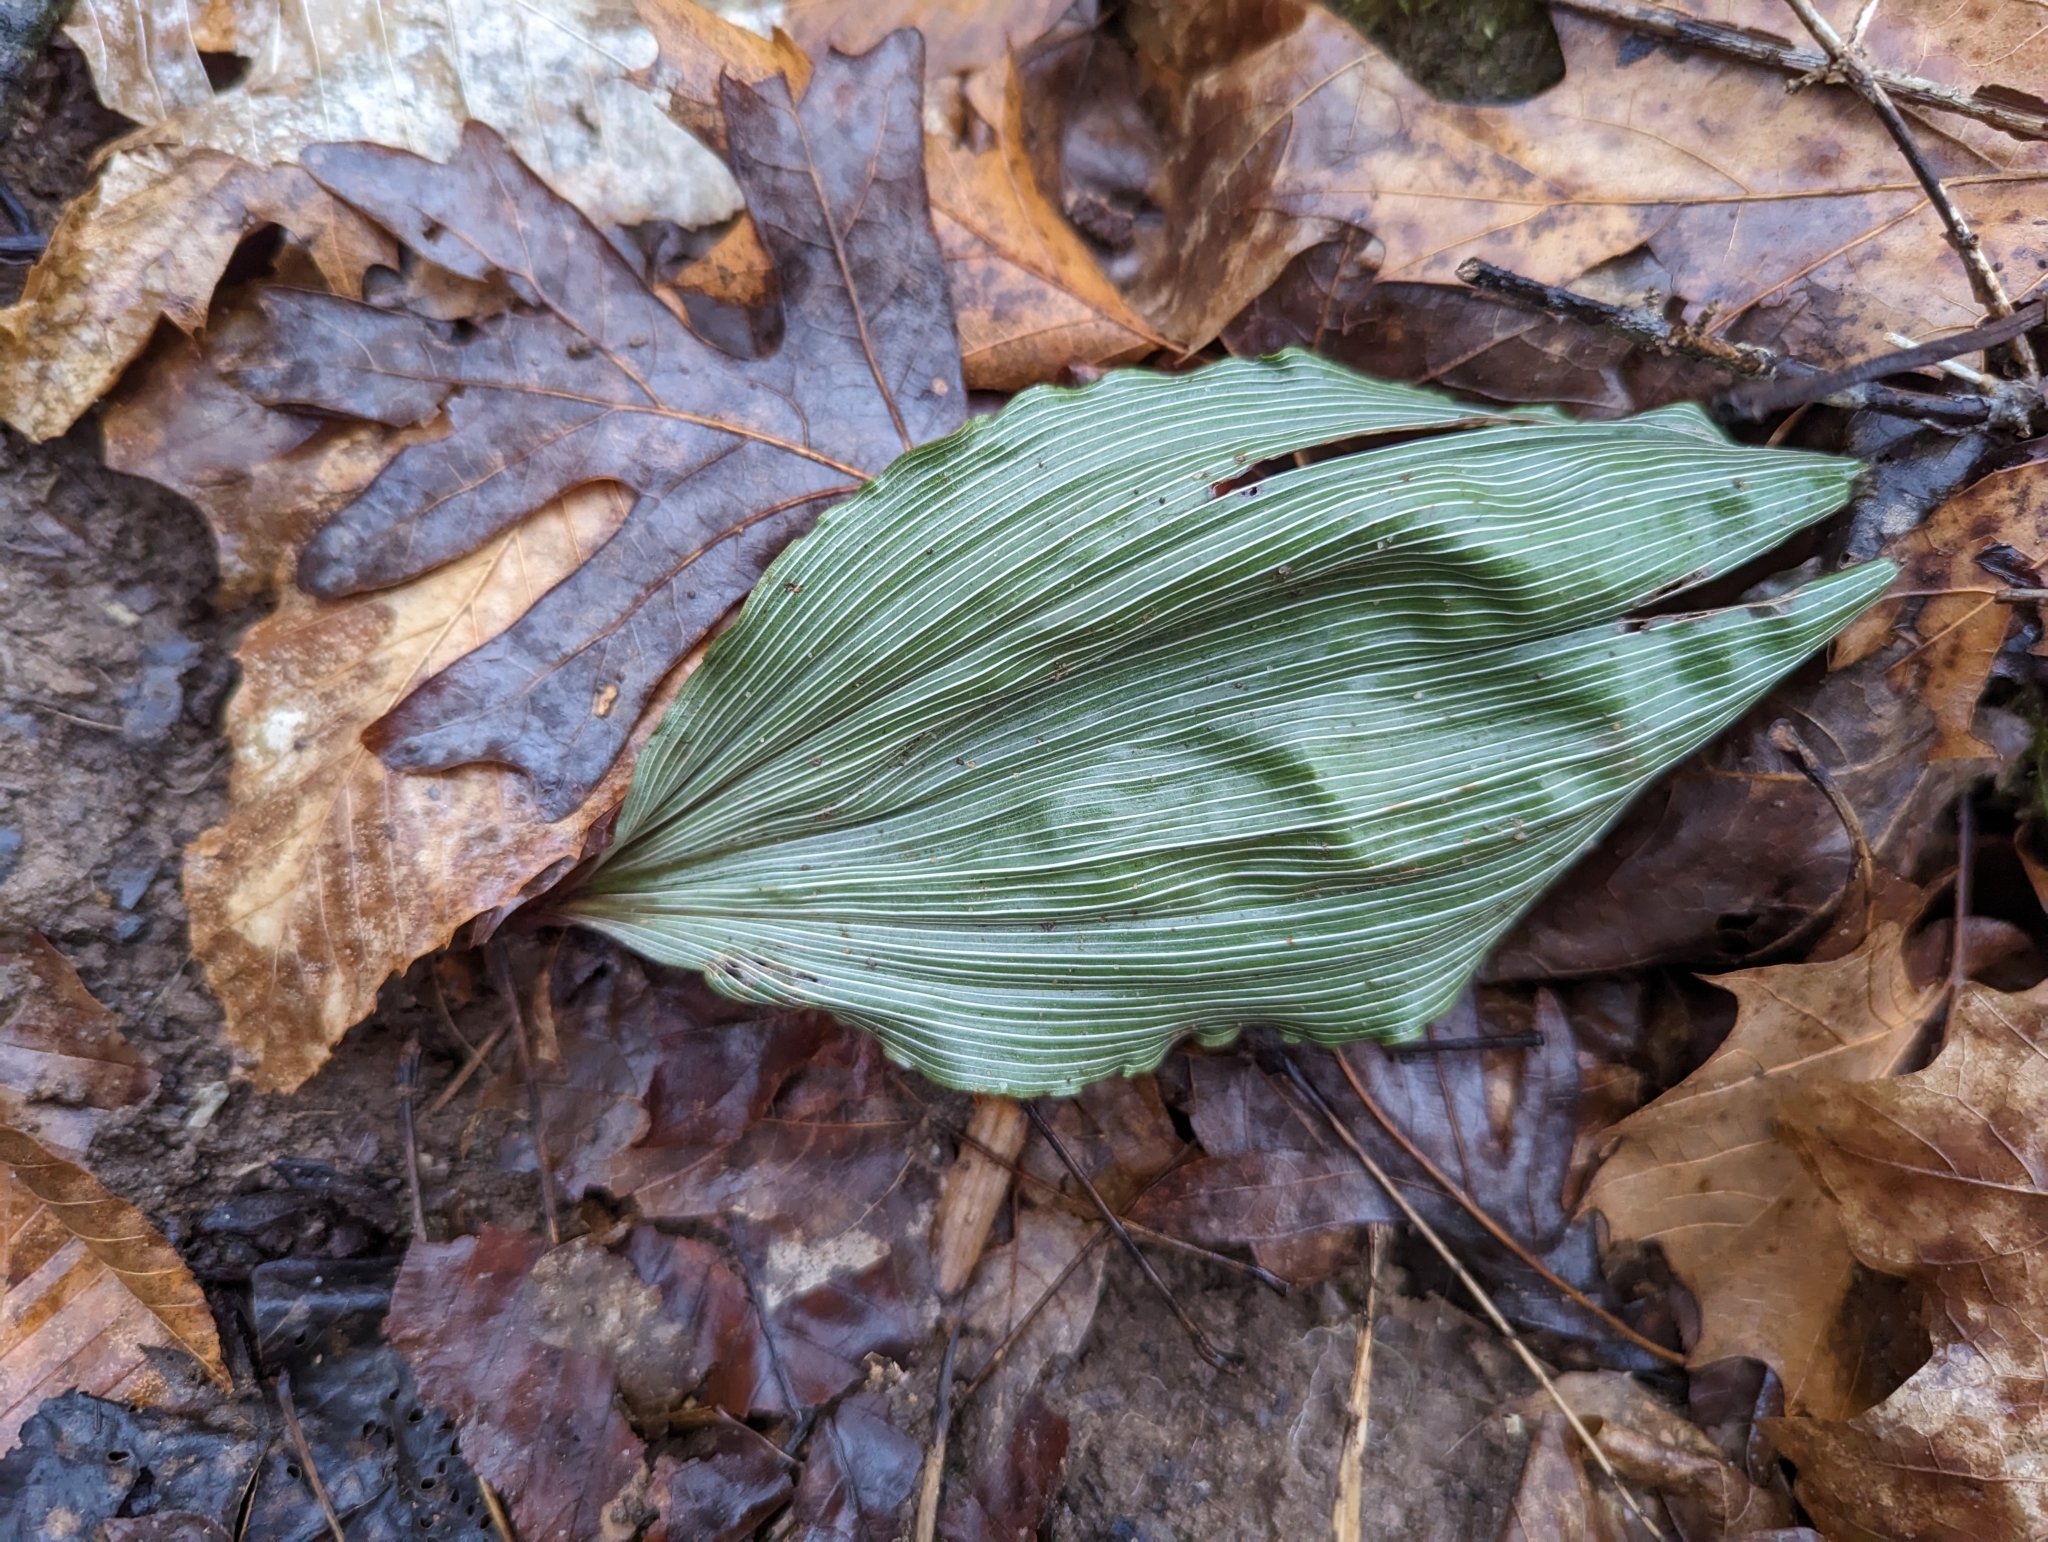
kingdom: Plantae
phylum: Tracheophyta
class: Liliopsida
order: Asparagales
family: Orchidaceae
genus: Aplectrum
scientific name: Aplectrum hyemale
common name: Adam-and-eve
